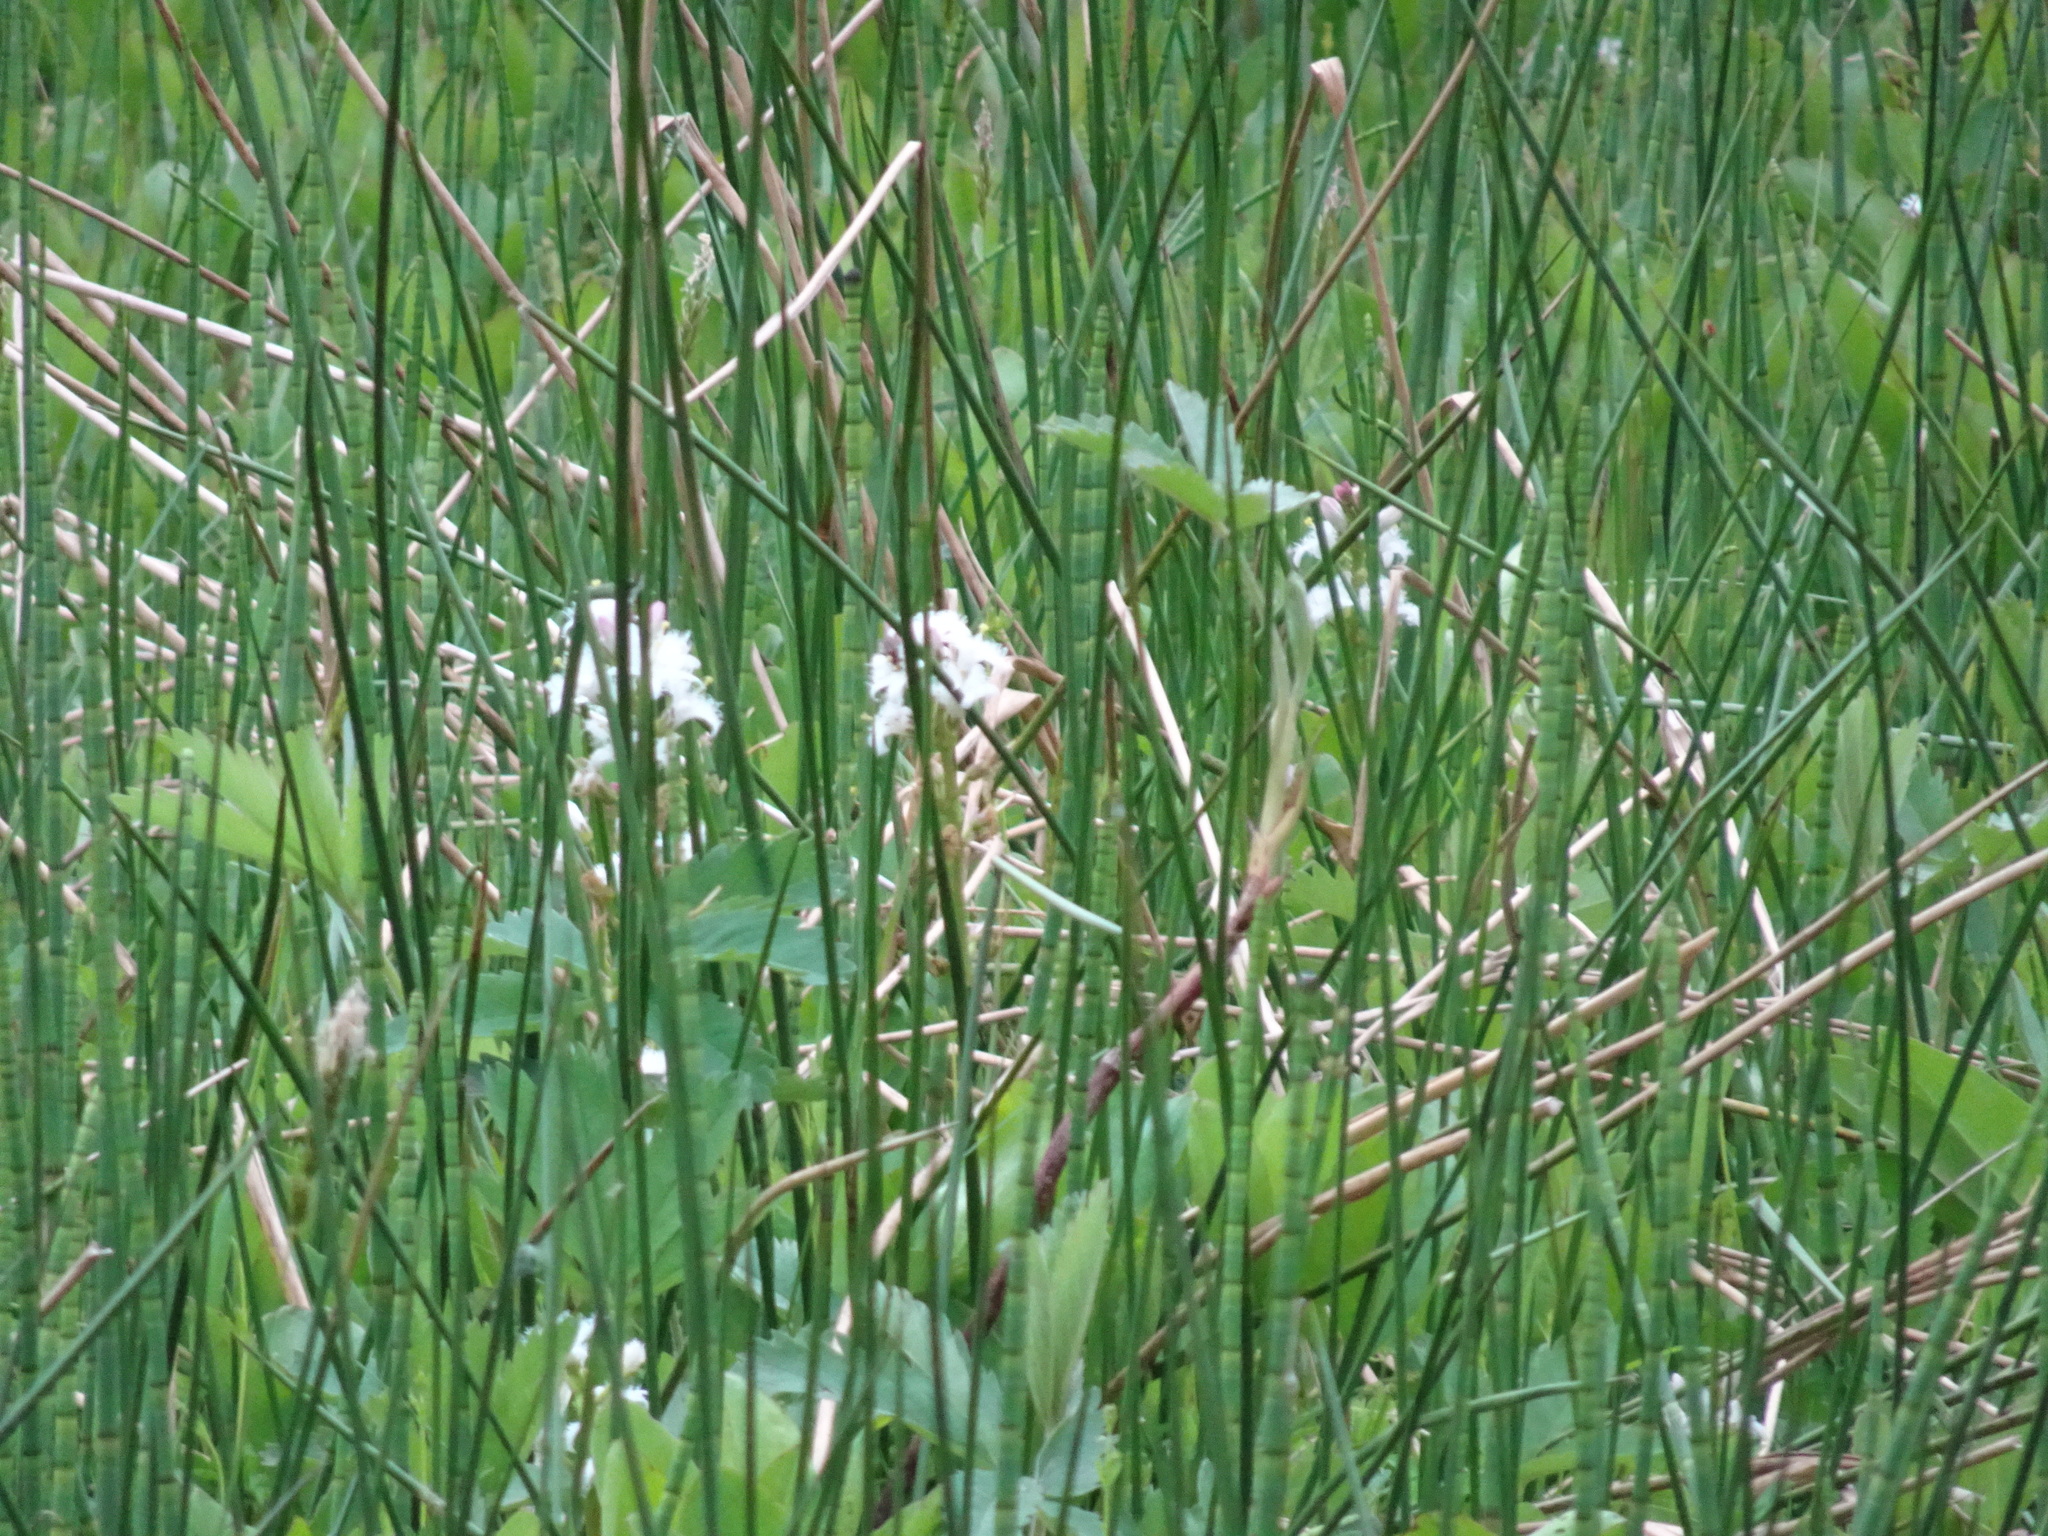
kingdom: Plantae
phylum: Tracheophyta
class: Magnoliopsida
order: Asterales
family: Menyanthaceae
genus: Menyanthes
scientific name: Menyanthes trifoliata
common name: Bogbean
